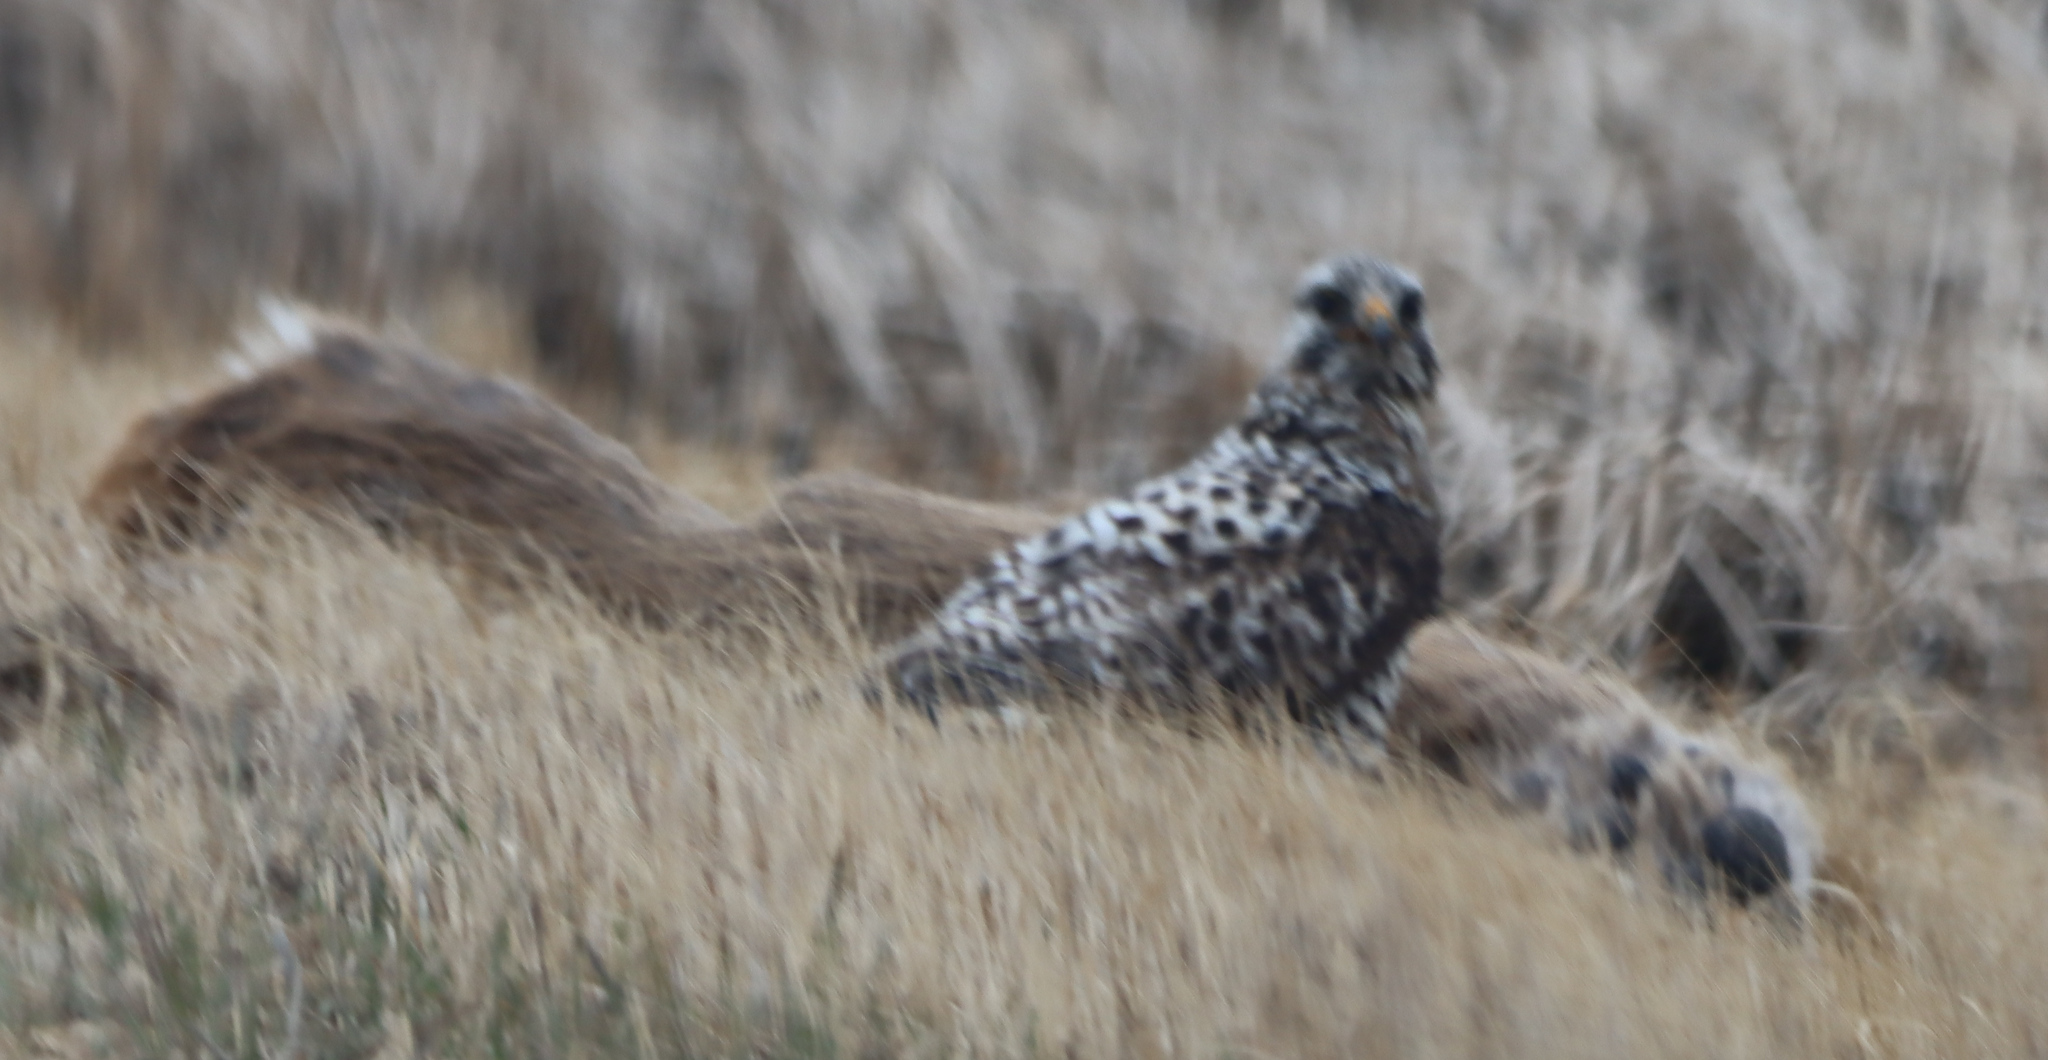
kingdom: Animalia
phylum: Chordata
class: Aves
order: Accipitriformes
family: Accipitridae
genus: Buteo
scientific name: Buteo lagopus
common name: Rough-legged buzzard
